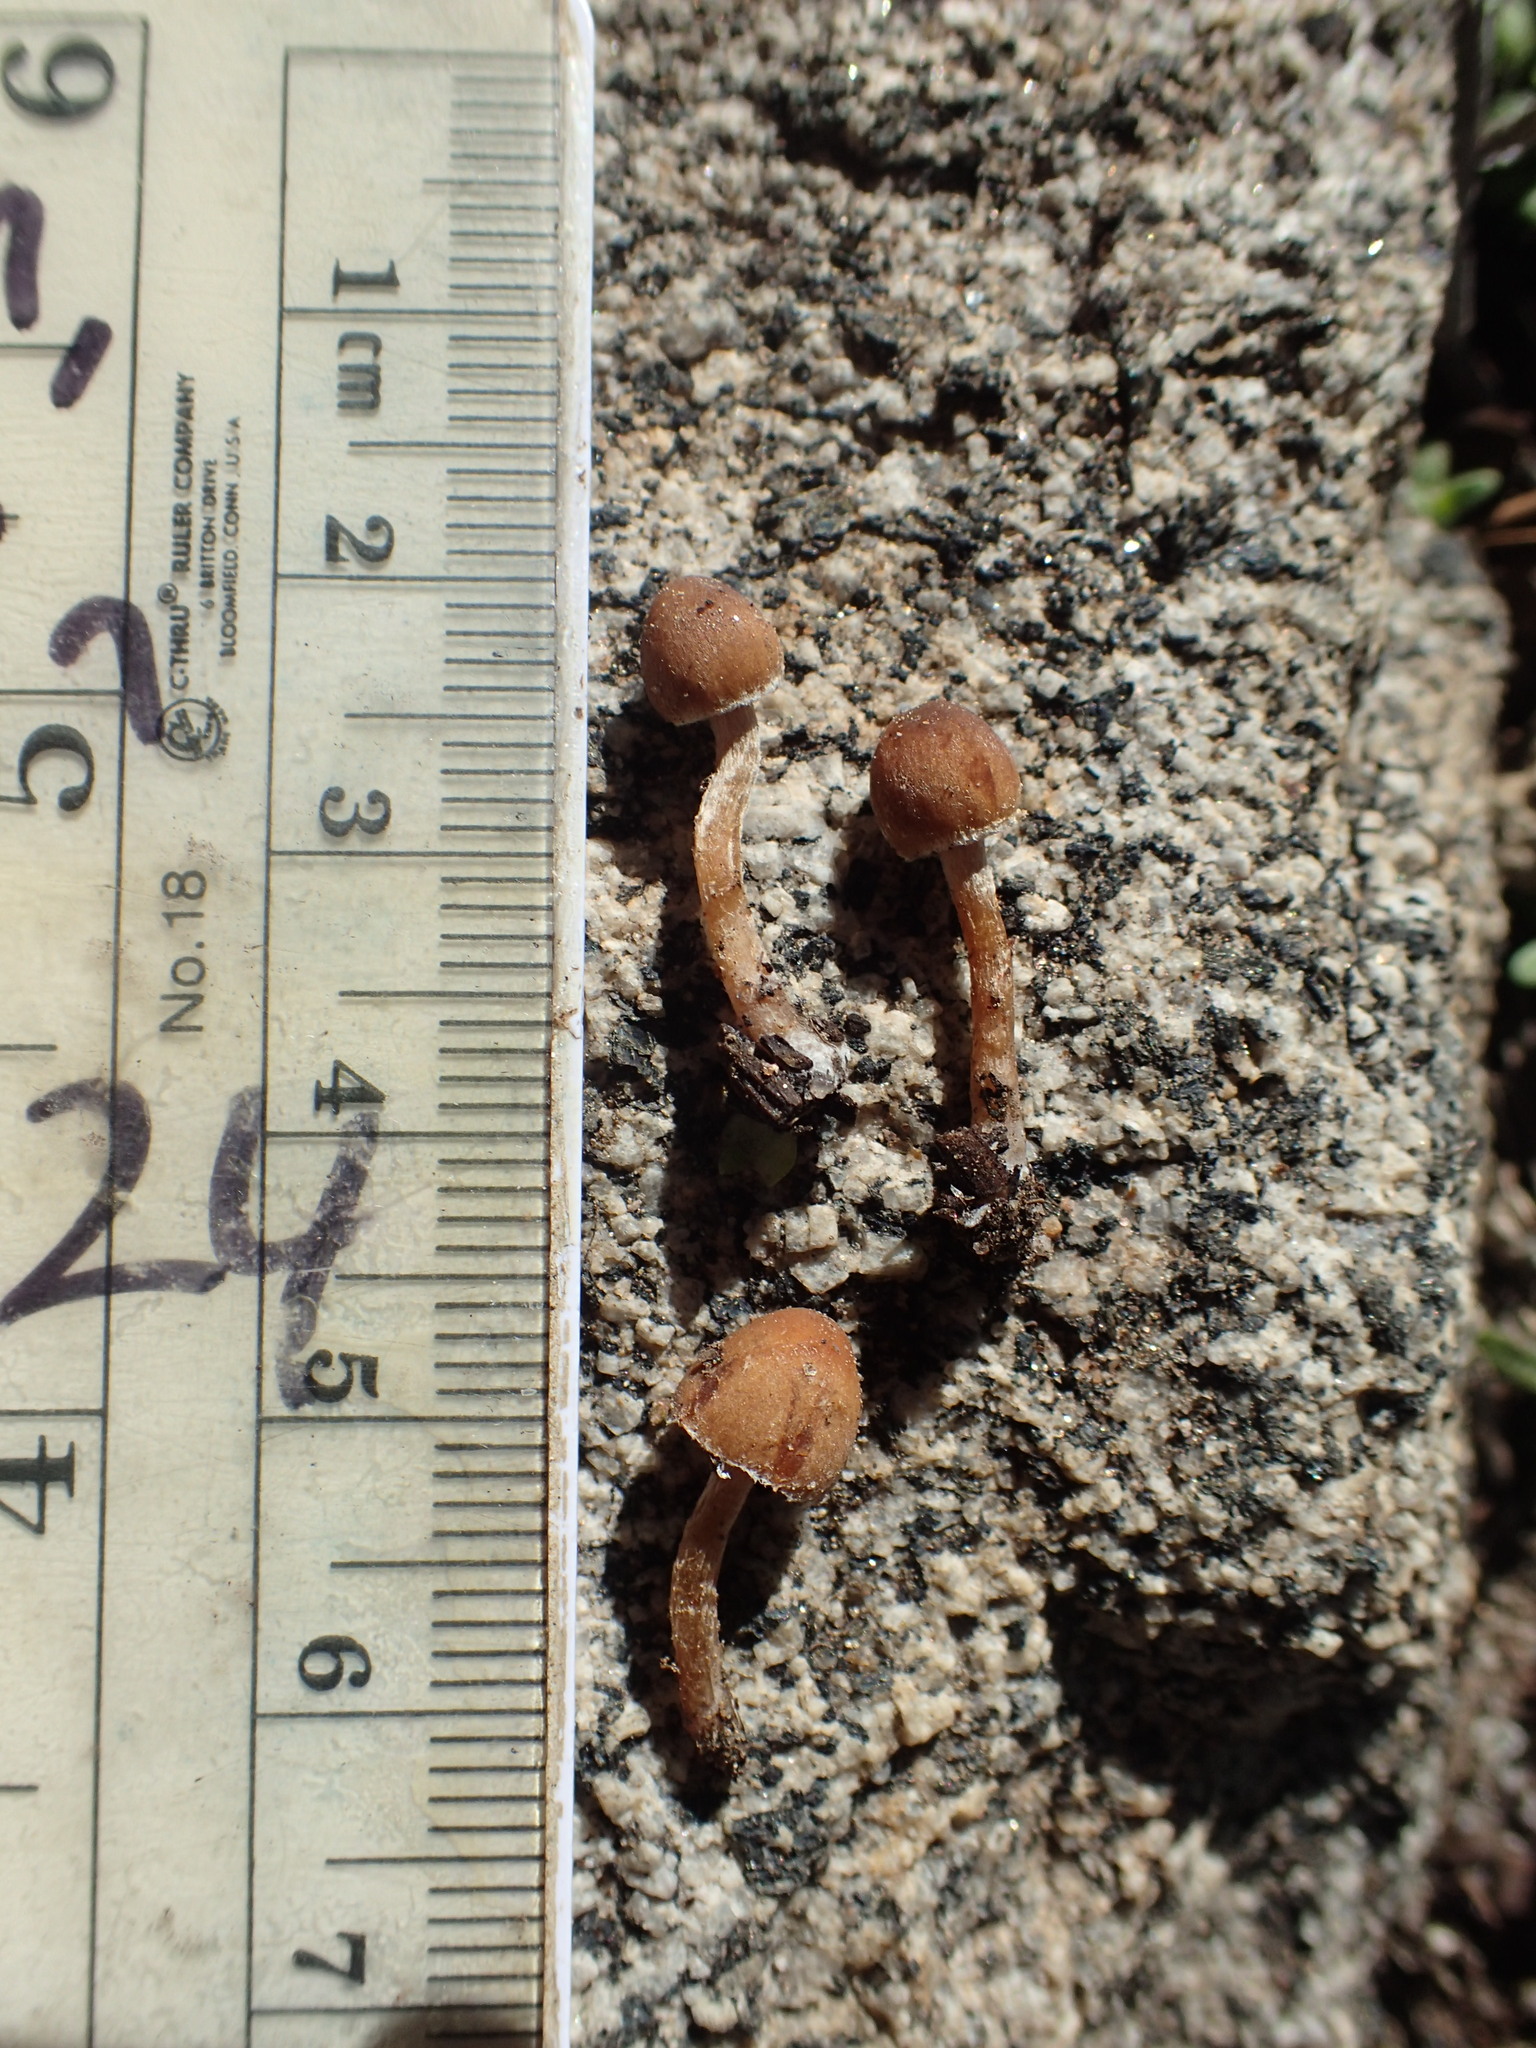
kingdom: Fungi
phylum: Basidiomycota
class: Agaricomycetes
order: Agaricales
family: Psathyrellaceae
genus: Psathyrella
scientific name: Psathyrella seymourensis
